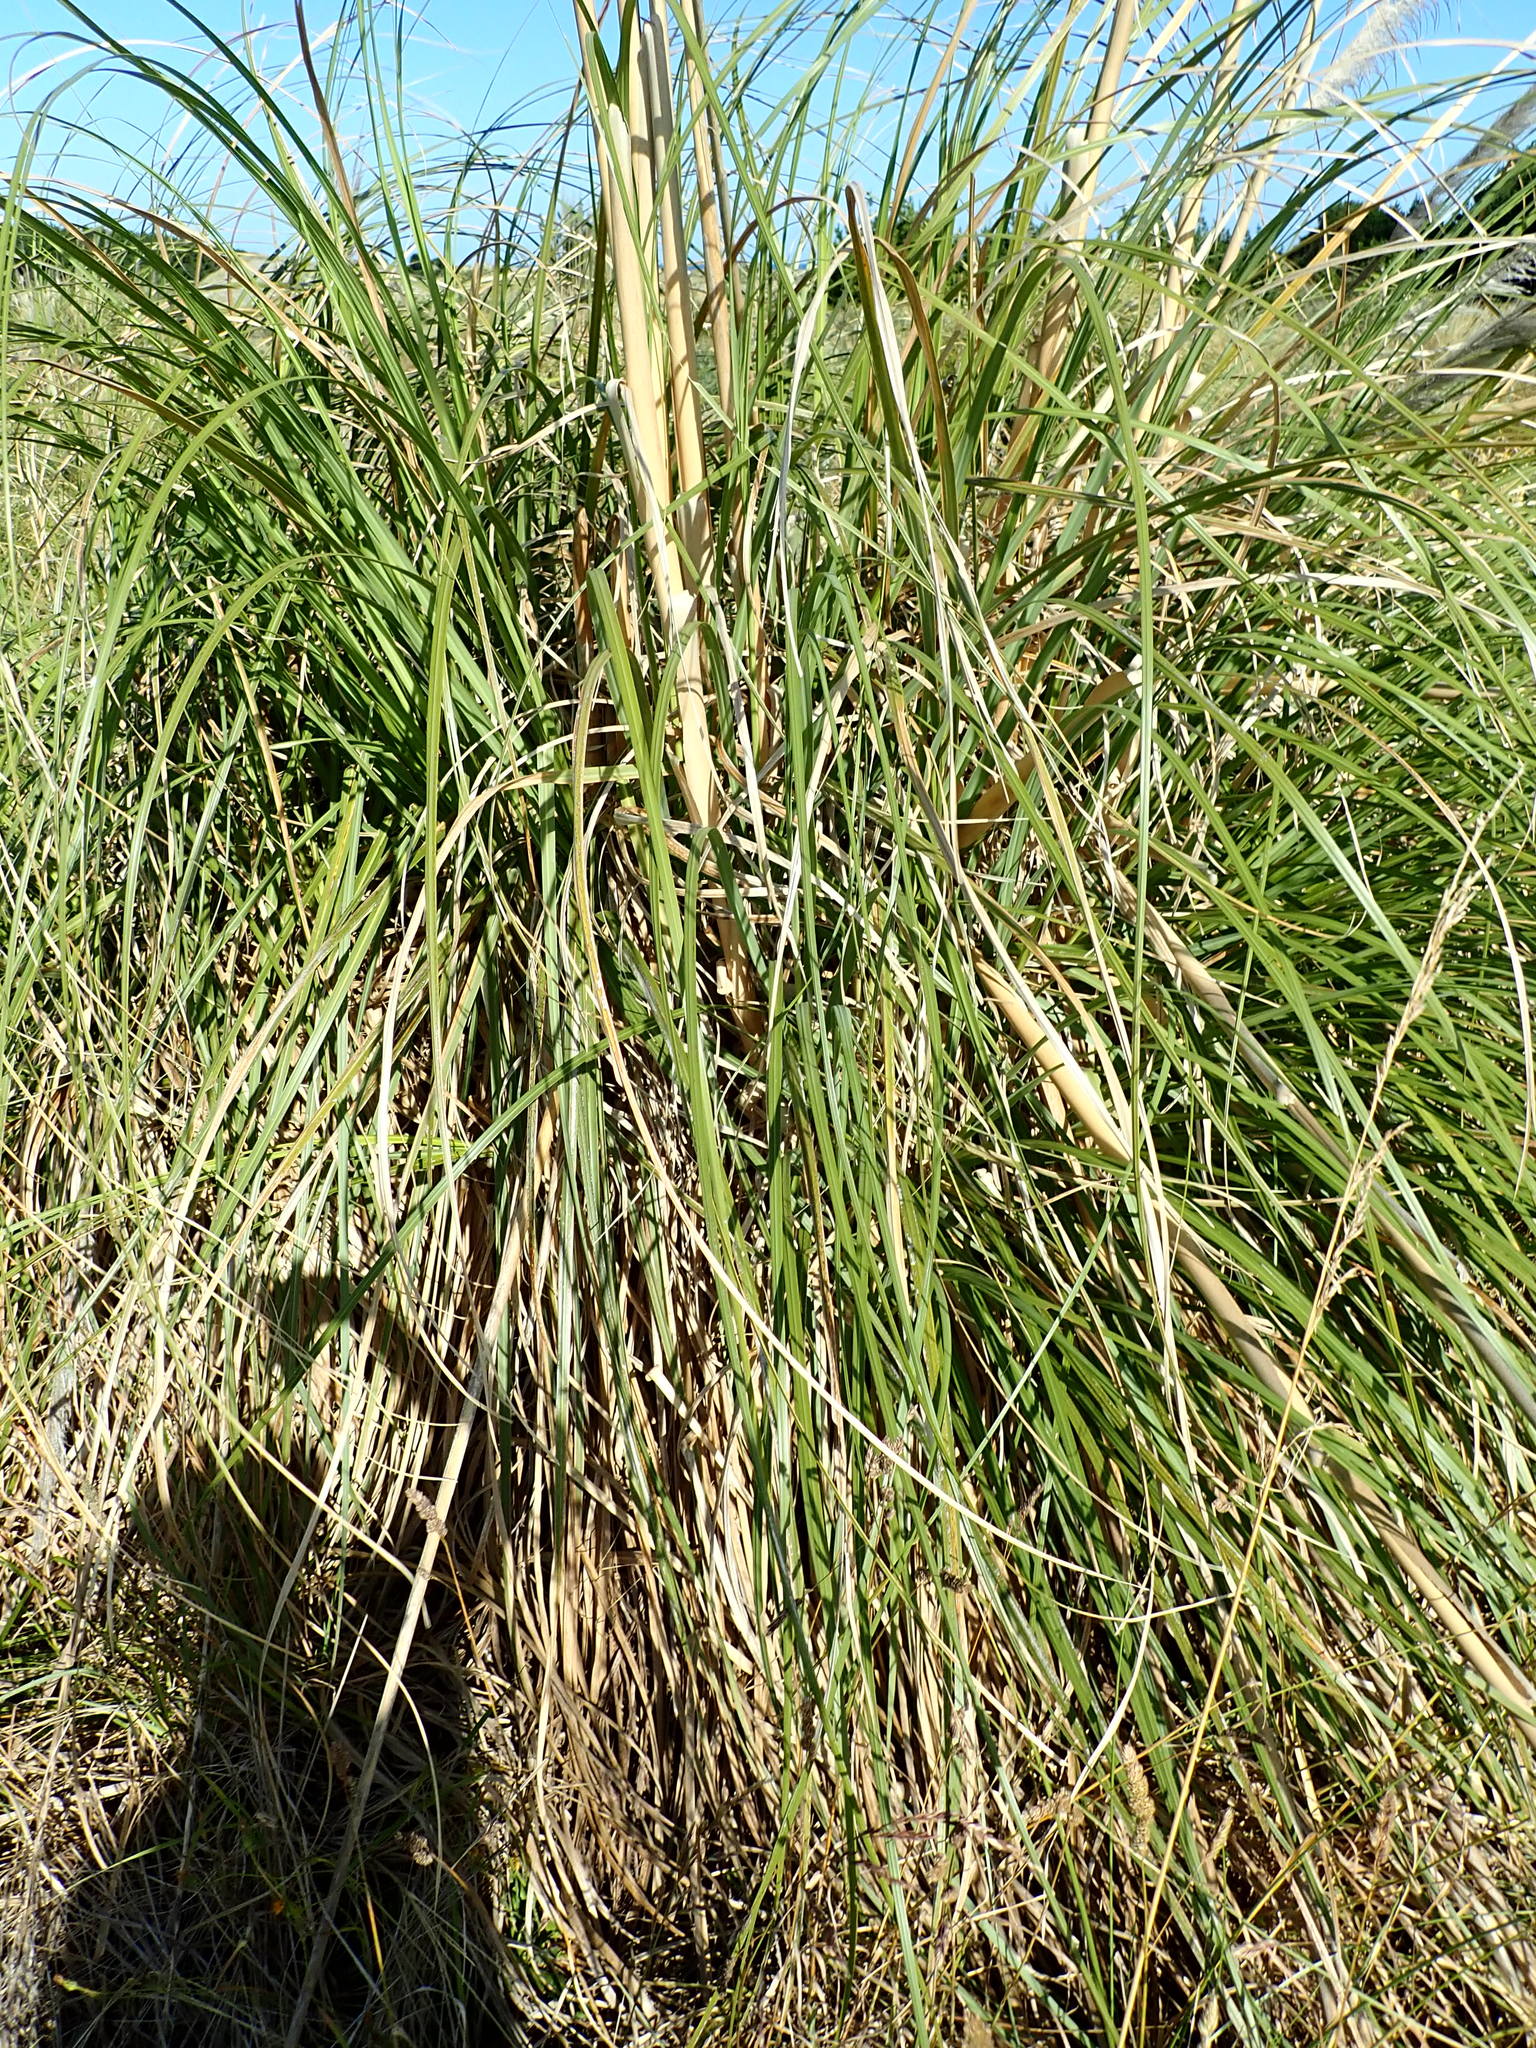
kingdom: Plantae
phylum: Tracheophyta
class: Liliopsida
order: Poales
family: Poaceae
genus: Cortaderia
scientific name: Cortaderia jubata
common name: Purple pampas grass
